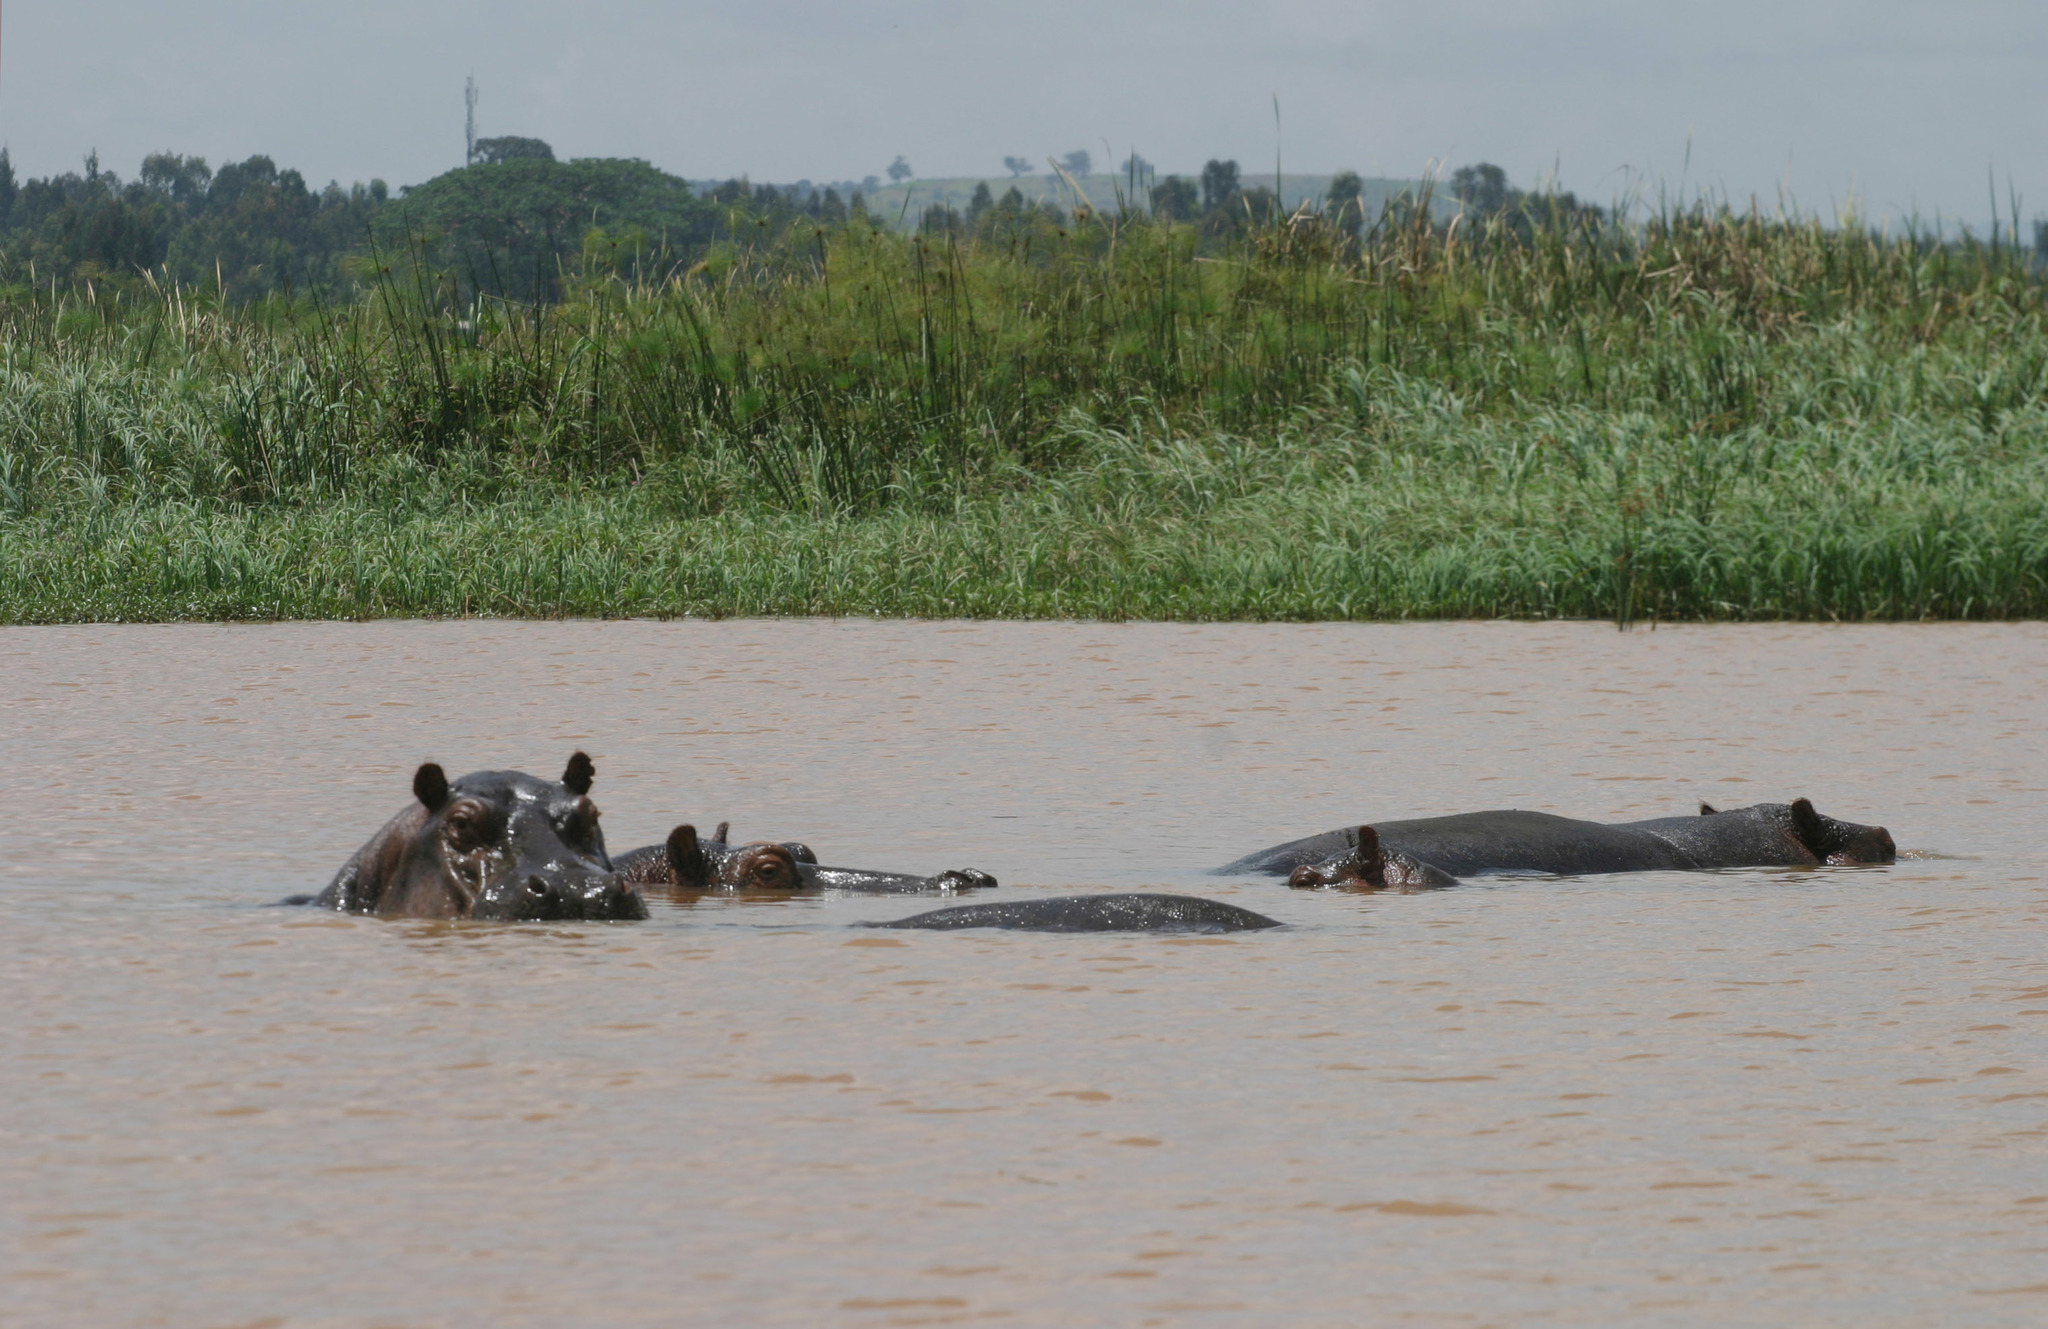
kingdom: Animalia
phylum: Chordata
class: Mammalia
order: Artiodactyla
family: Hippopotamidae
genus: Hippopotamus
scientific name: Hippopotamus amphibius
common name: Common hippopotamus
